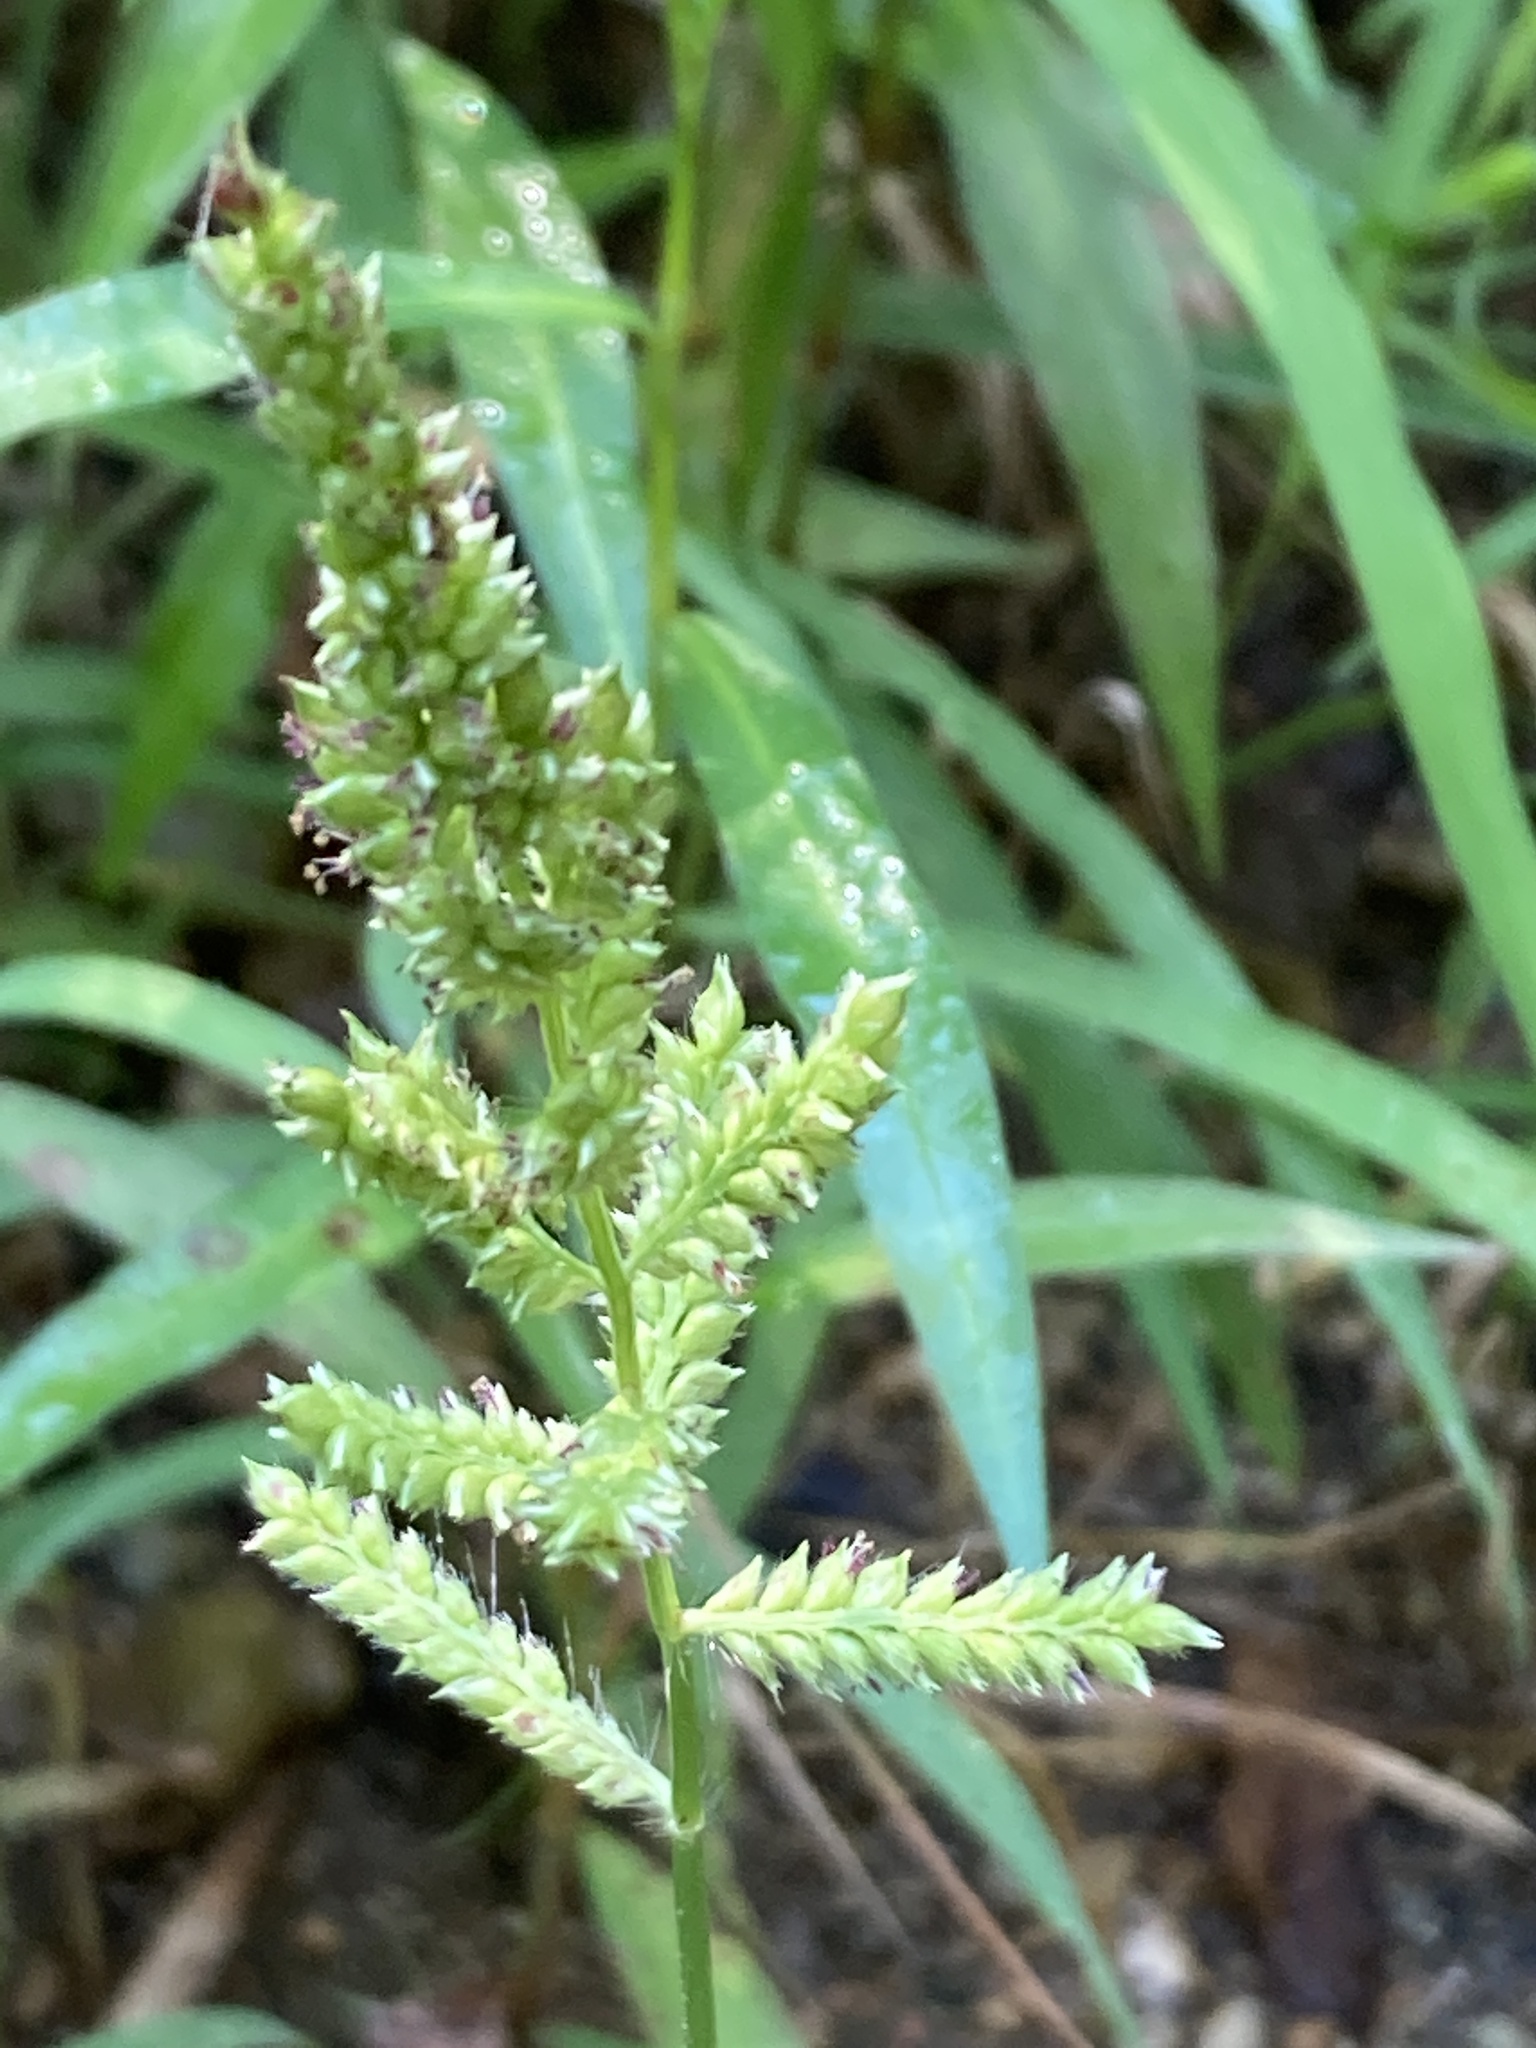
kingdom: Plantae
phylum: Tracheophyta
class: Liliopsida
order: Poales
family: Poaceae
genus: Echinochloa
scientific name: Echinochloa crus-galli
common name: Cockspur
